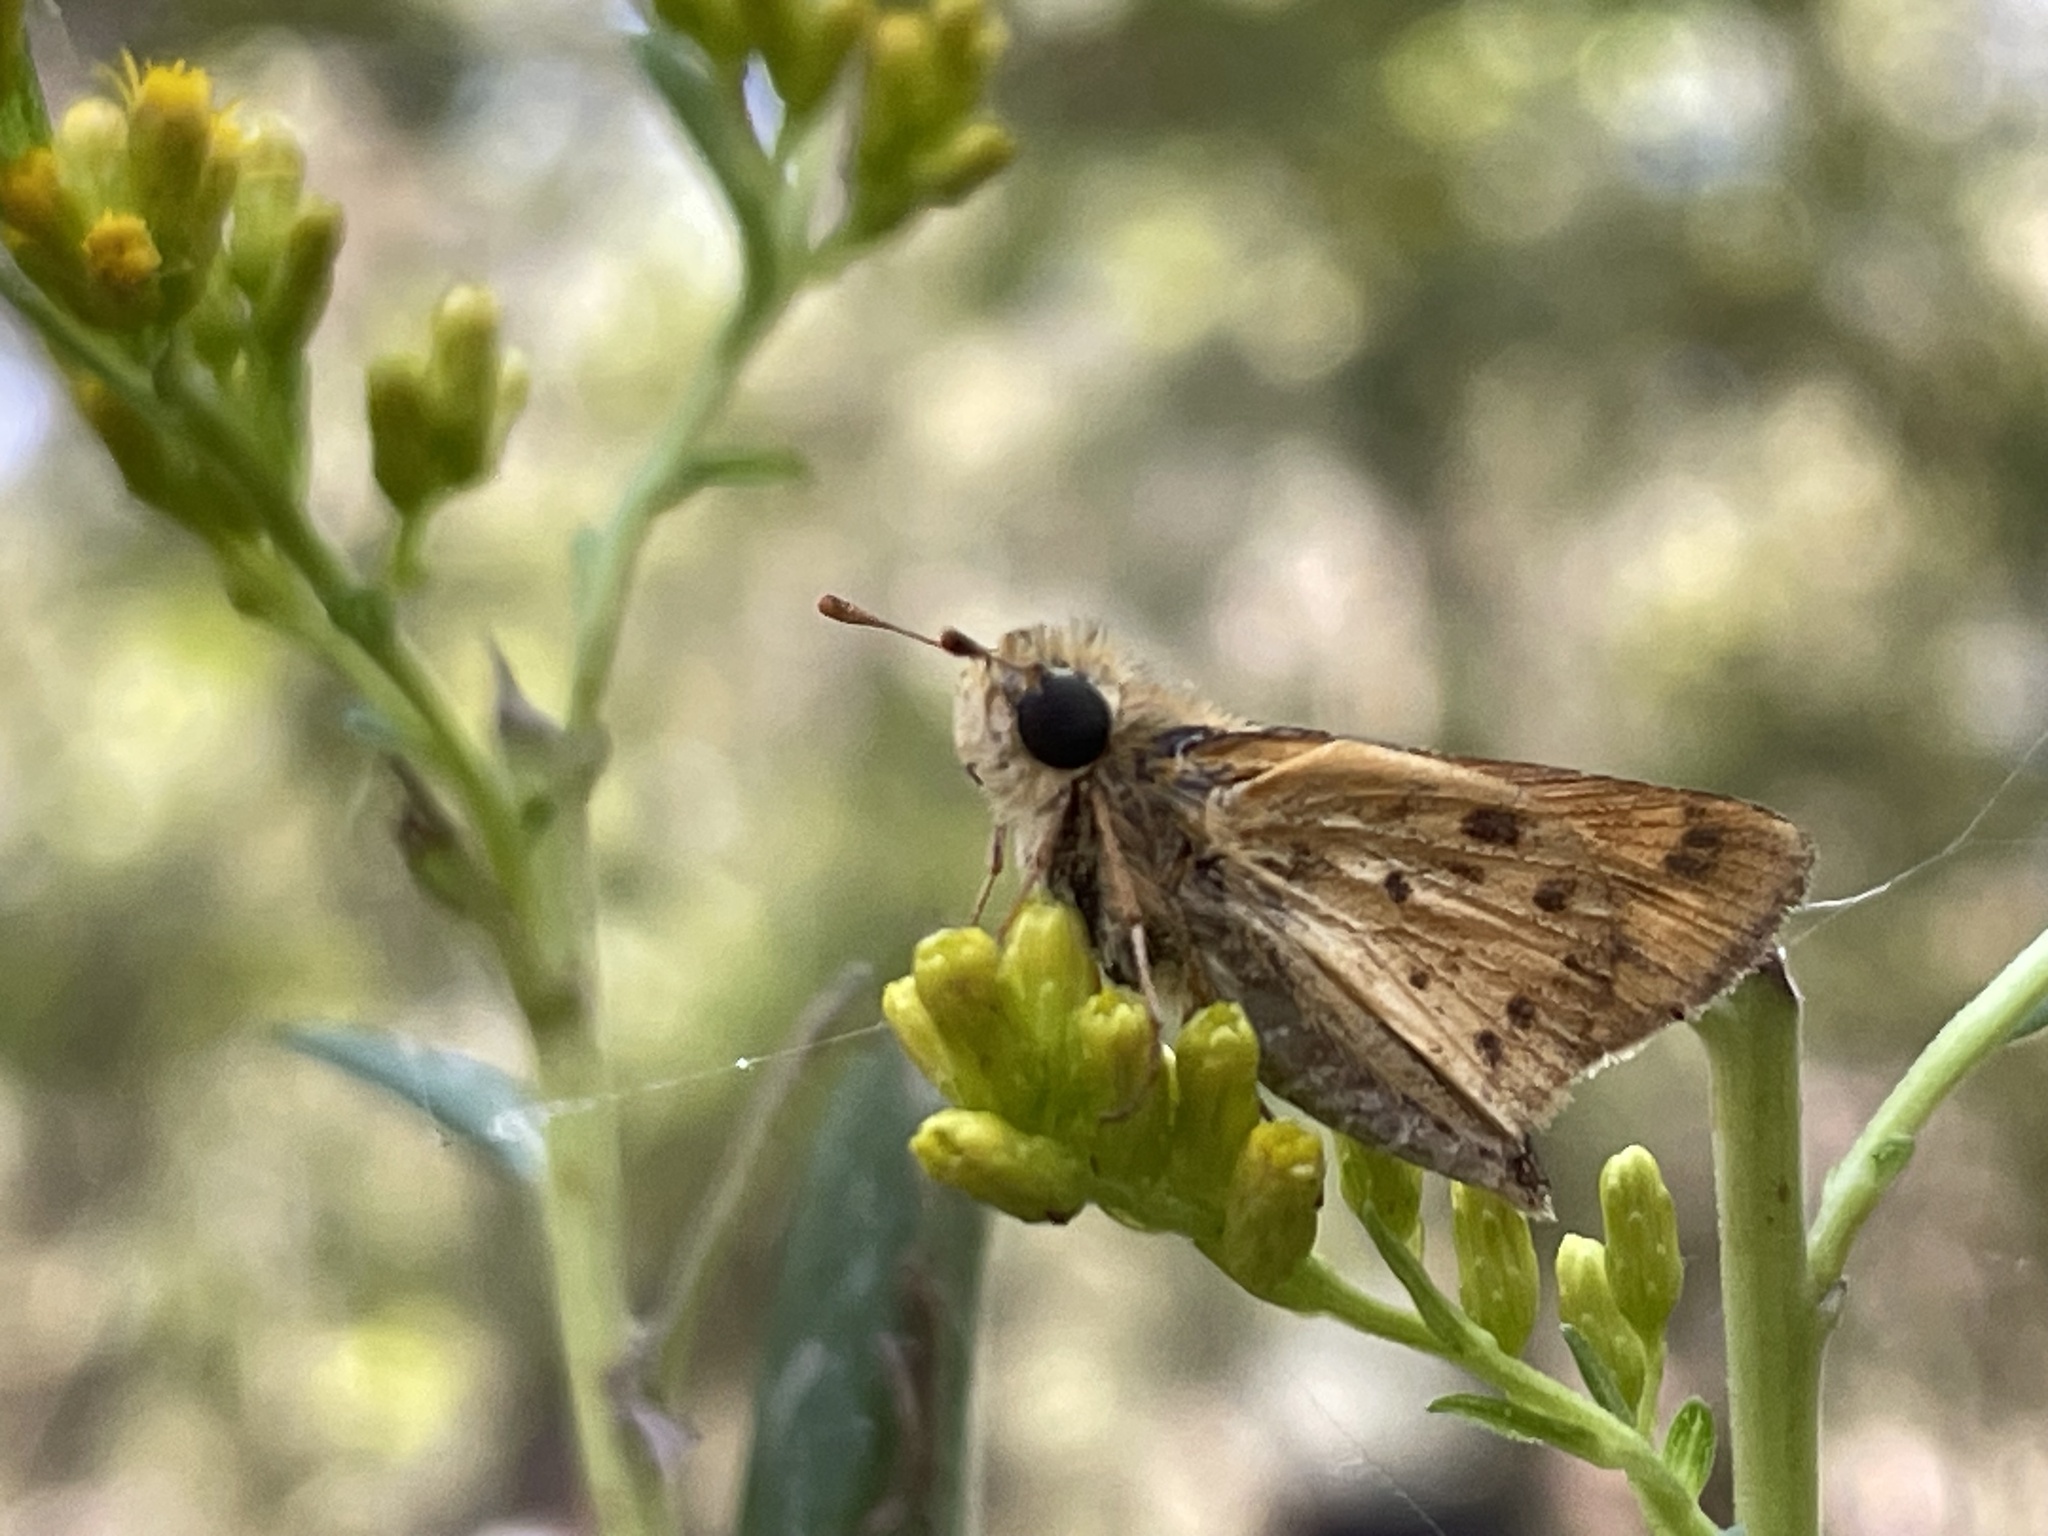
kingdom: Animalia
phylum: Arthropoda
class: Insecta
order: Lepidoptera
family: Hesperiidae
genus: Hylephila
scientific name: Hylephila phyleus
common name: Fiery skipper
